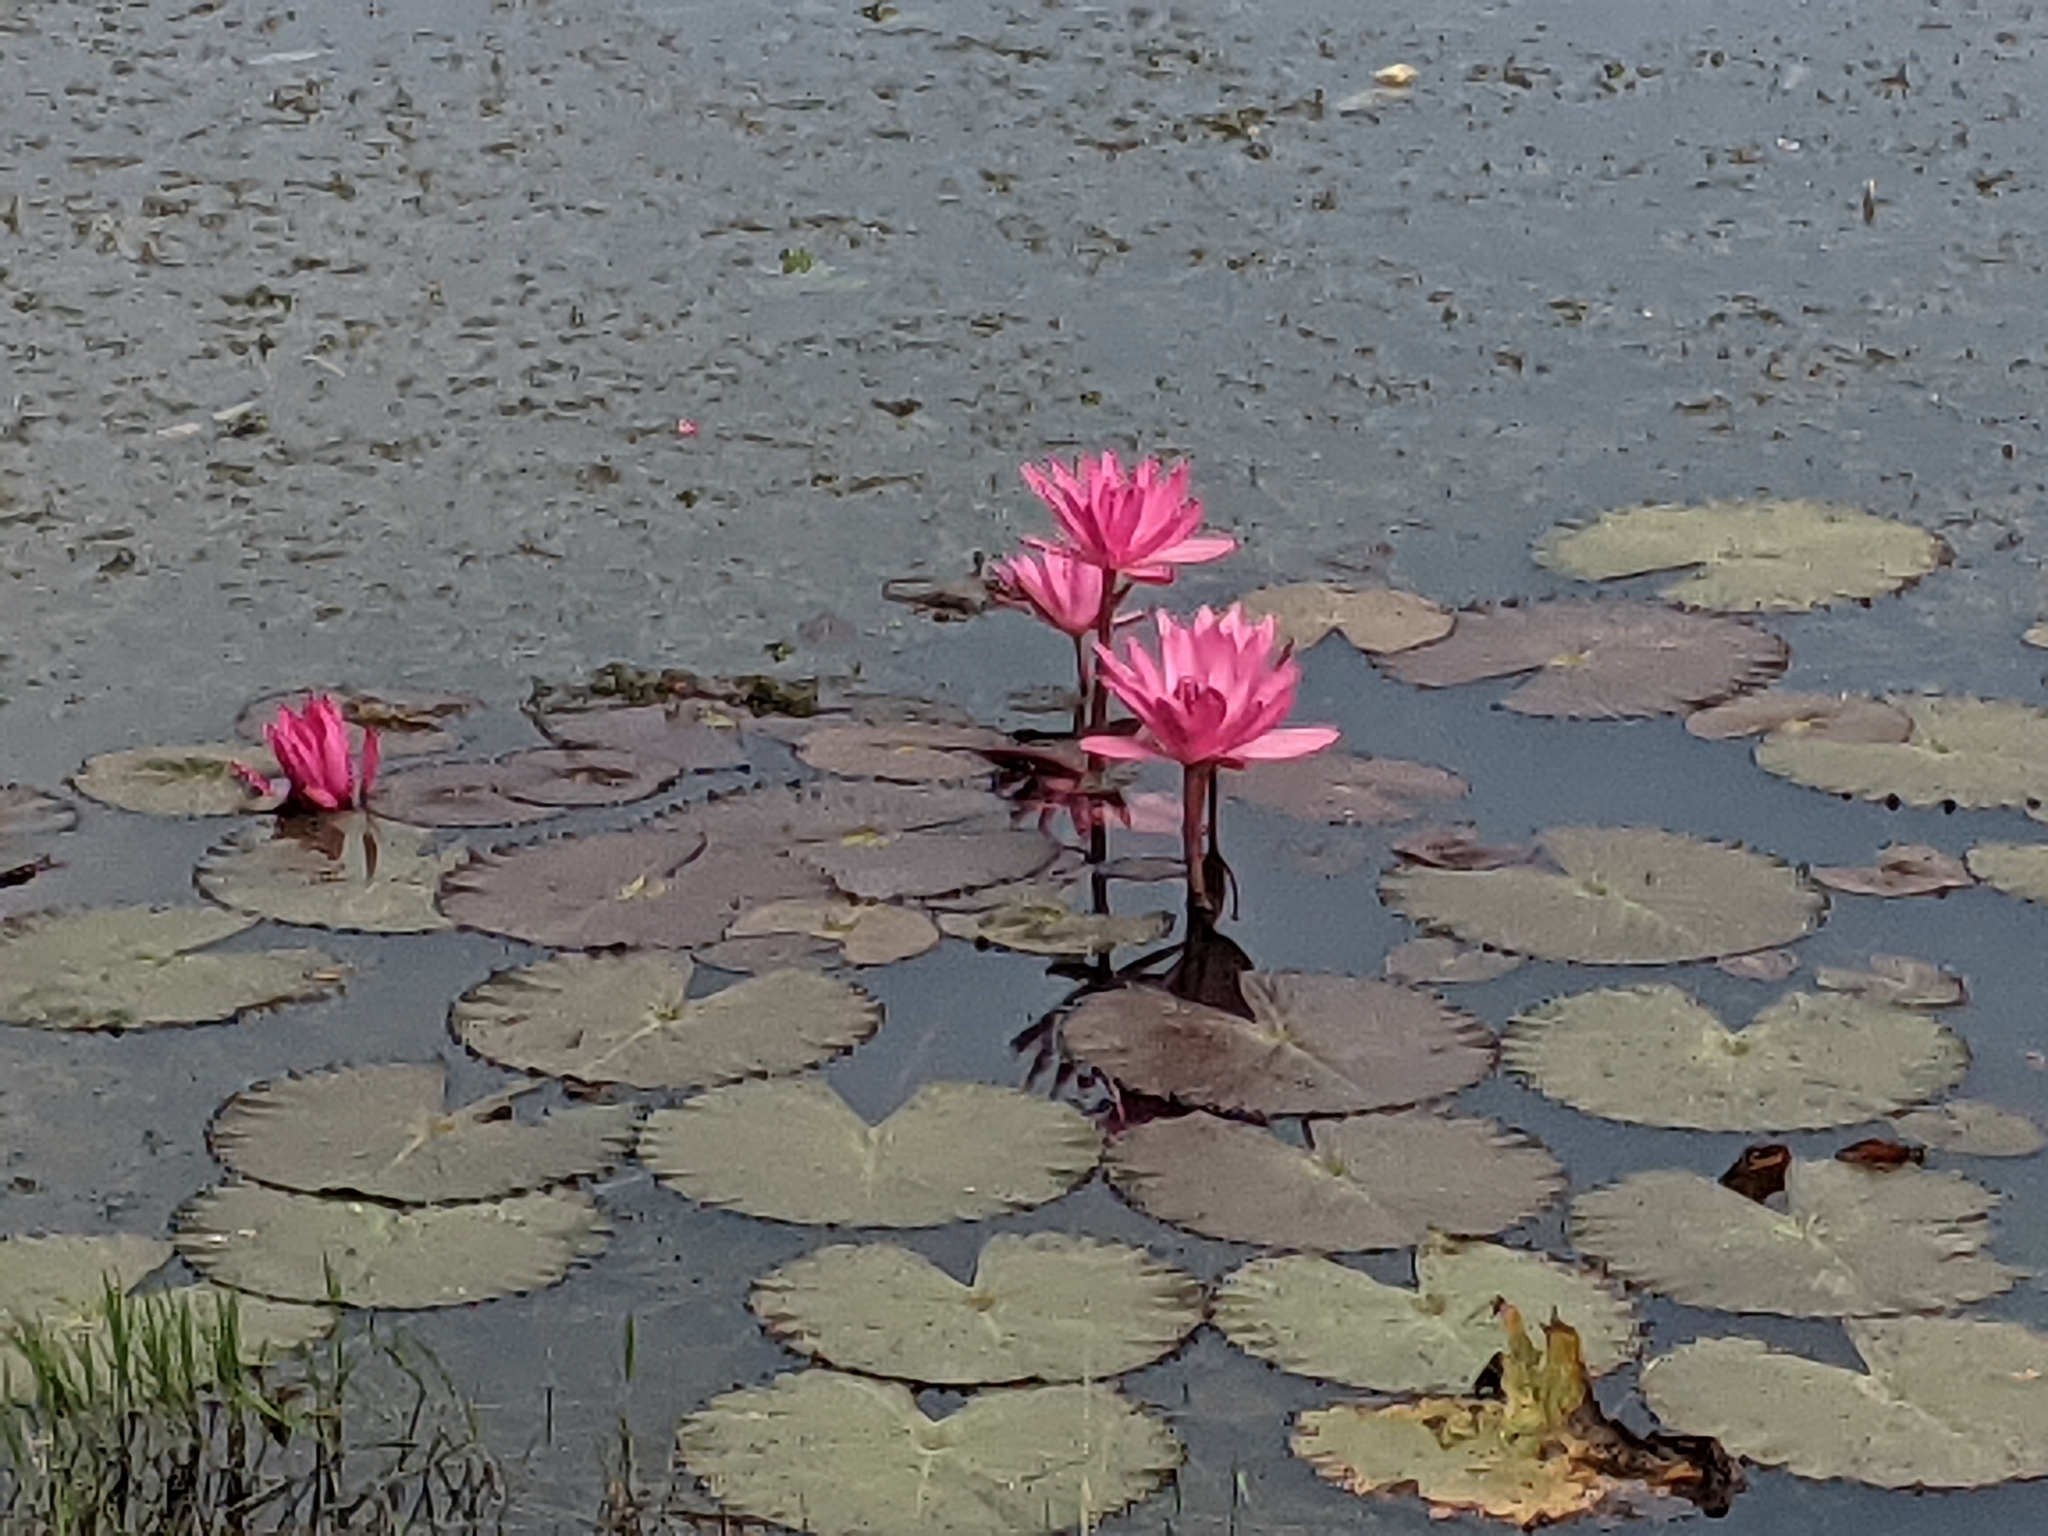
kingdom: Plantae
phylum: Tracheophyta
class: Magnoliopsida
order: Nymphaeales
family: Nymphaeaceae
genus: Nymphaea
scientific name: Nymphaea rubra
